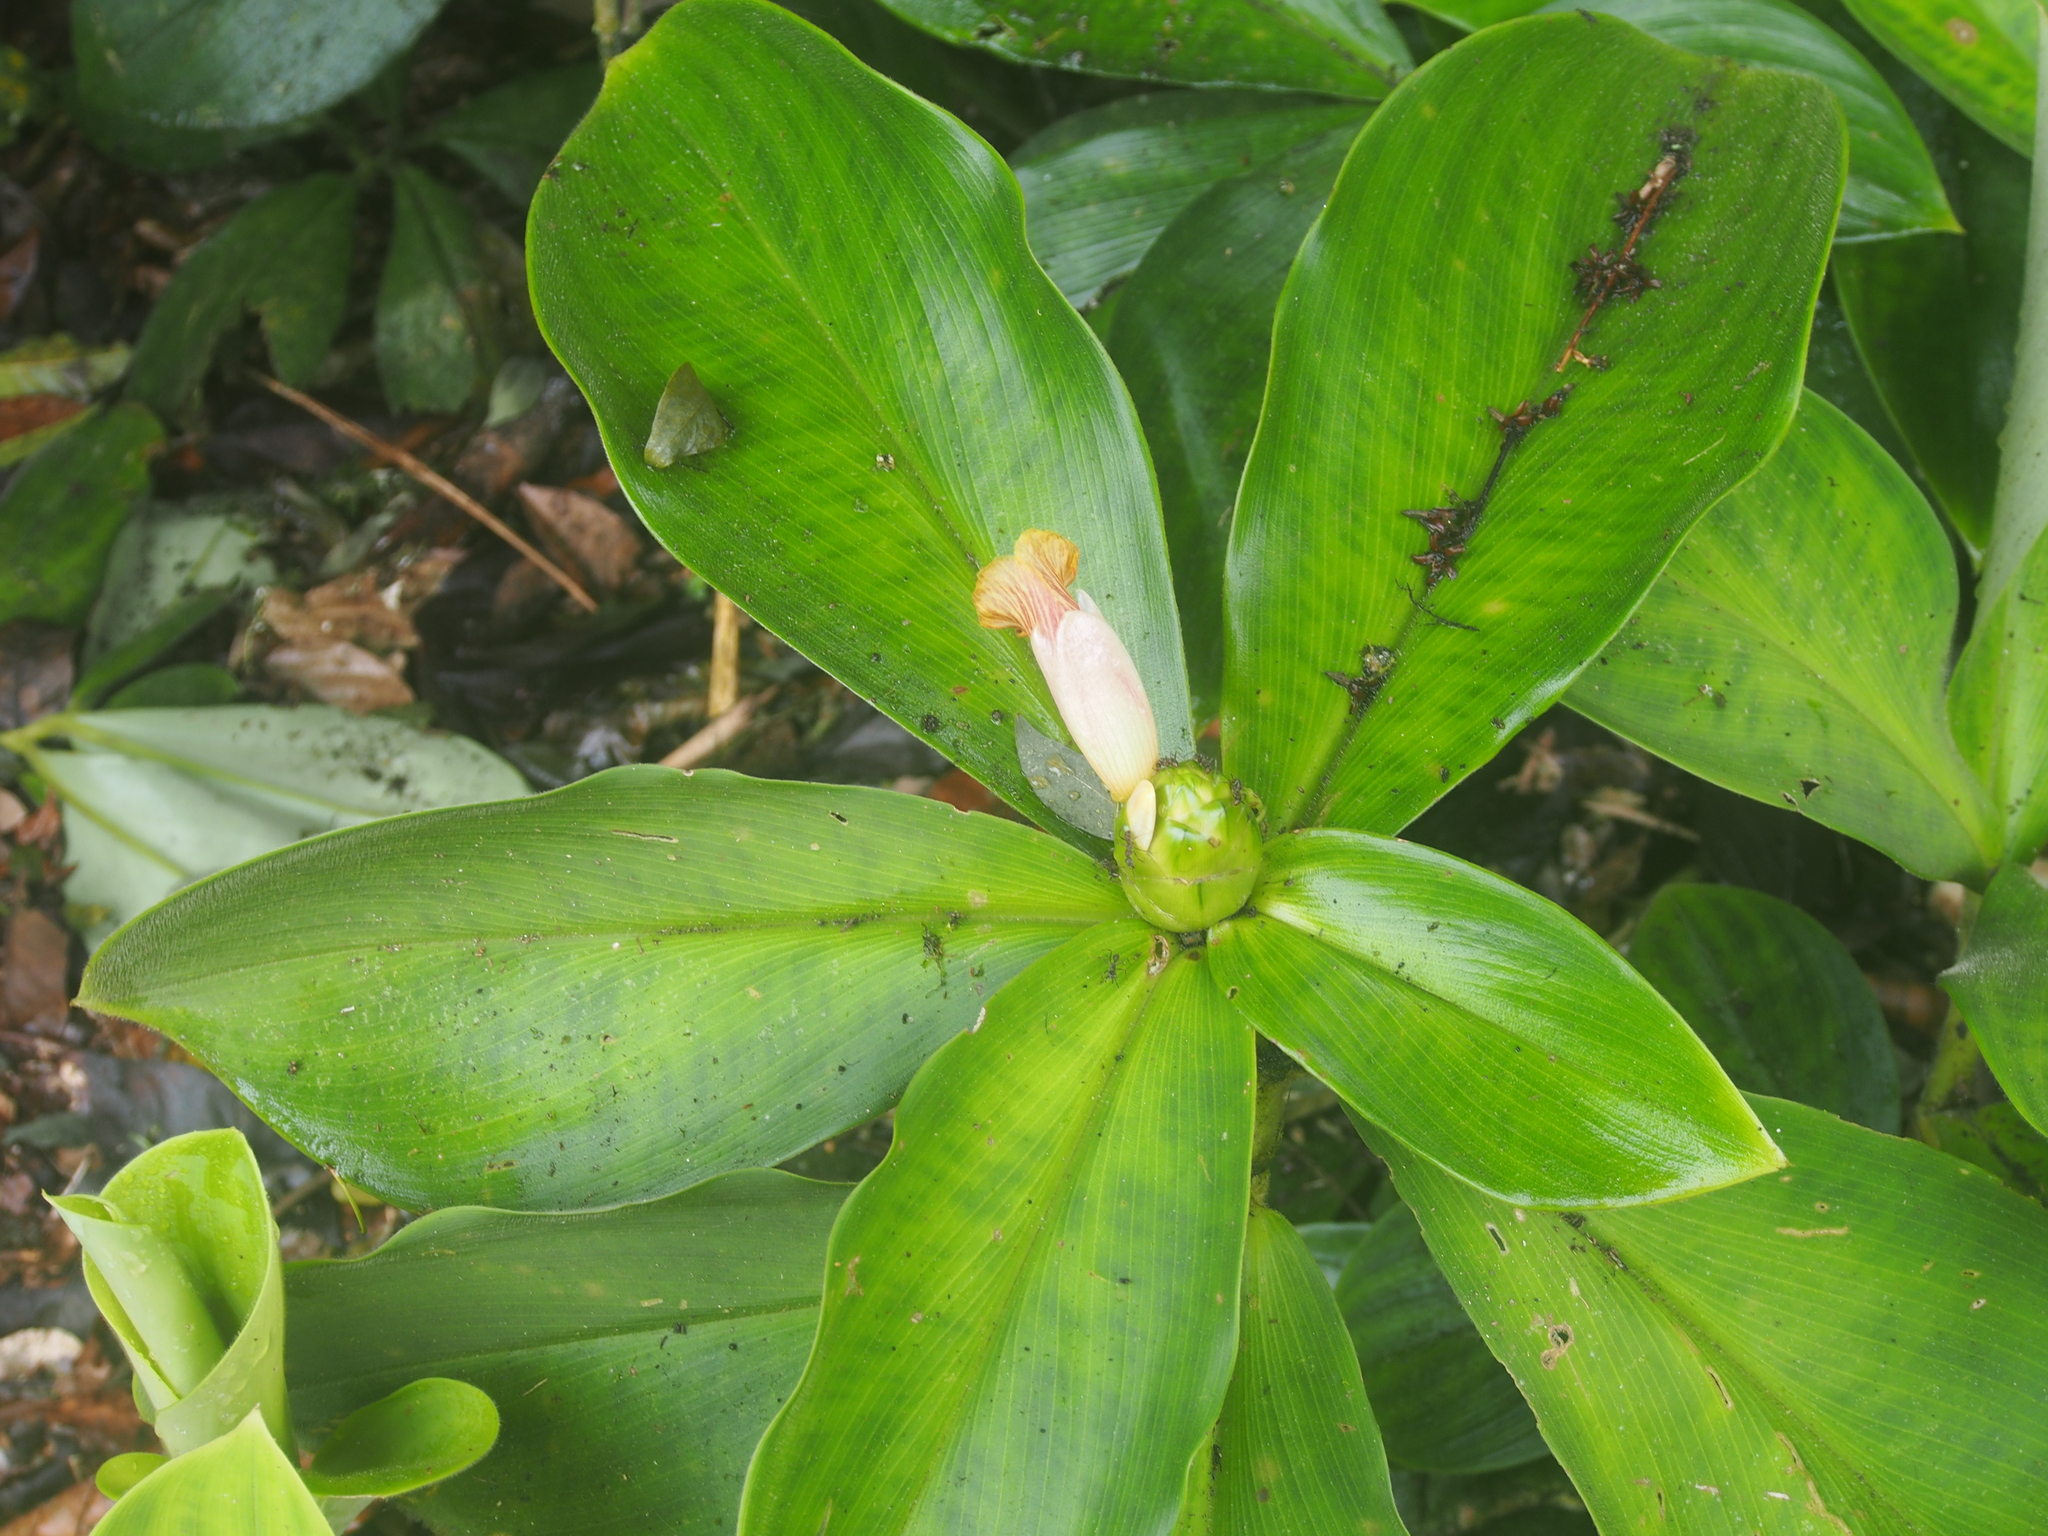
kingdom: Plantae
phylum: Tracheophyta
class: Liliopsida
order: Zingiberales
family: Costaceae
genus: Costus
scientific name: Costus elegans
